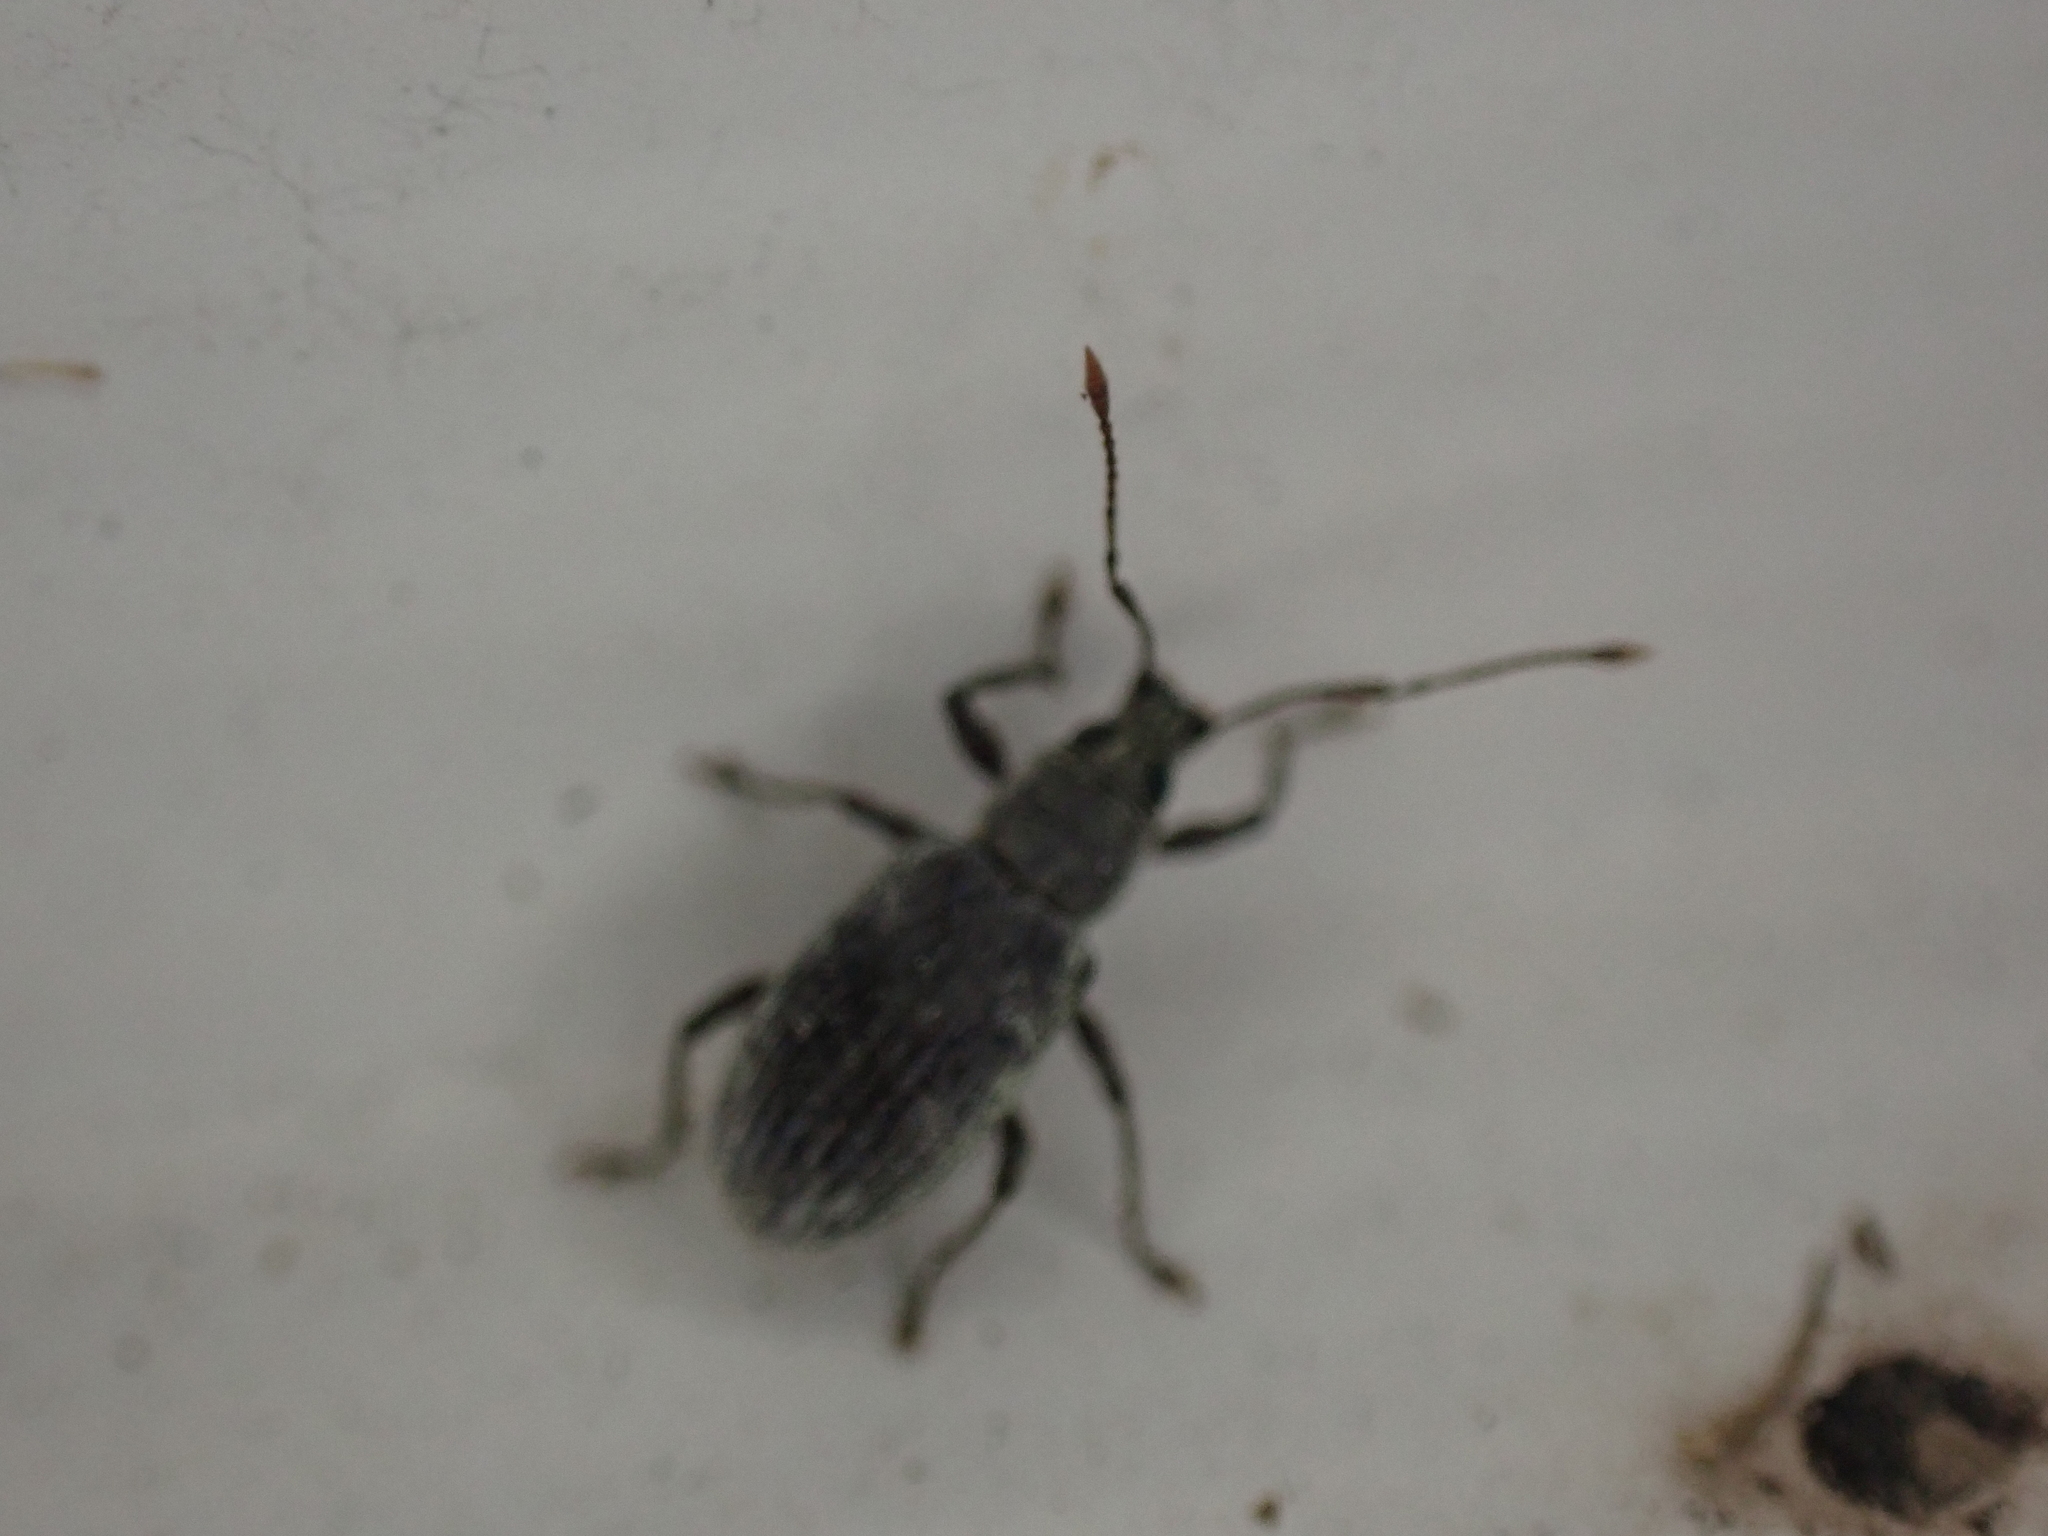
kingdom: Animalia
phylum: Arthropoda
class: Insecta
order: Coleoptera
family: Curculionidae
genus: Cyrtepistomus
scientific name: Cyrtepistomus castaneus
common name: Weevil
